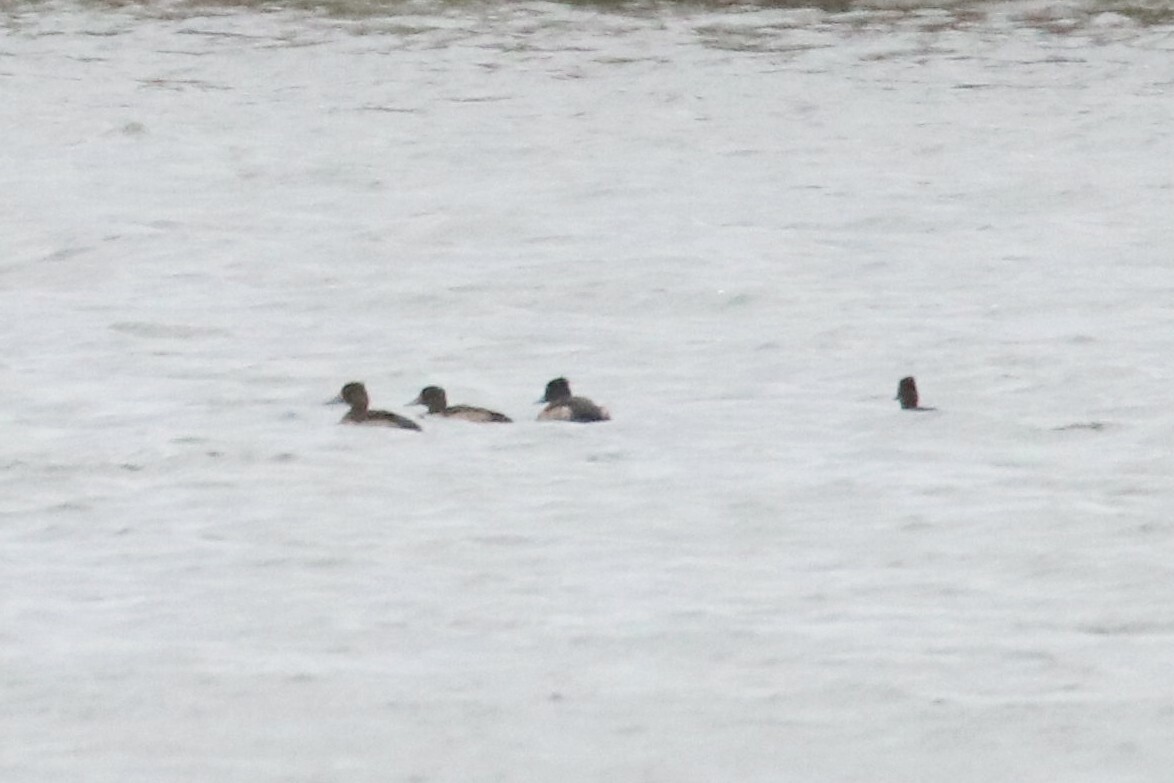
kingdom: Animalia
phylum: Chordata
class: Aves
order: Anseriformes
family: Anatidae
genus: Aythya
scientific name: Aythya fuligula
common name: Tufted duck
